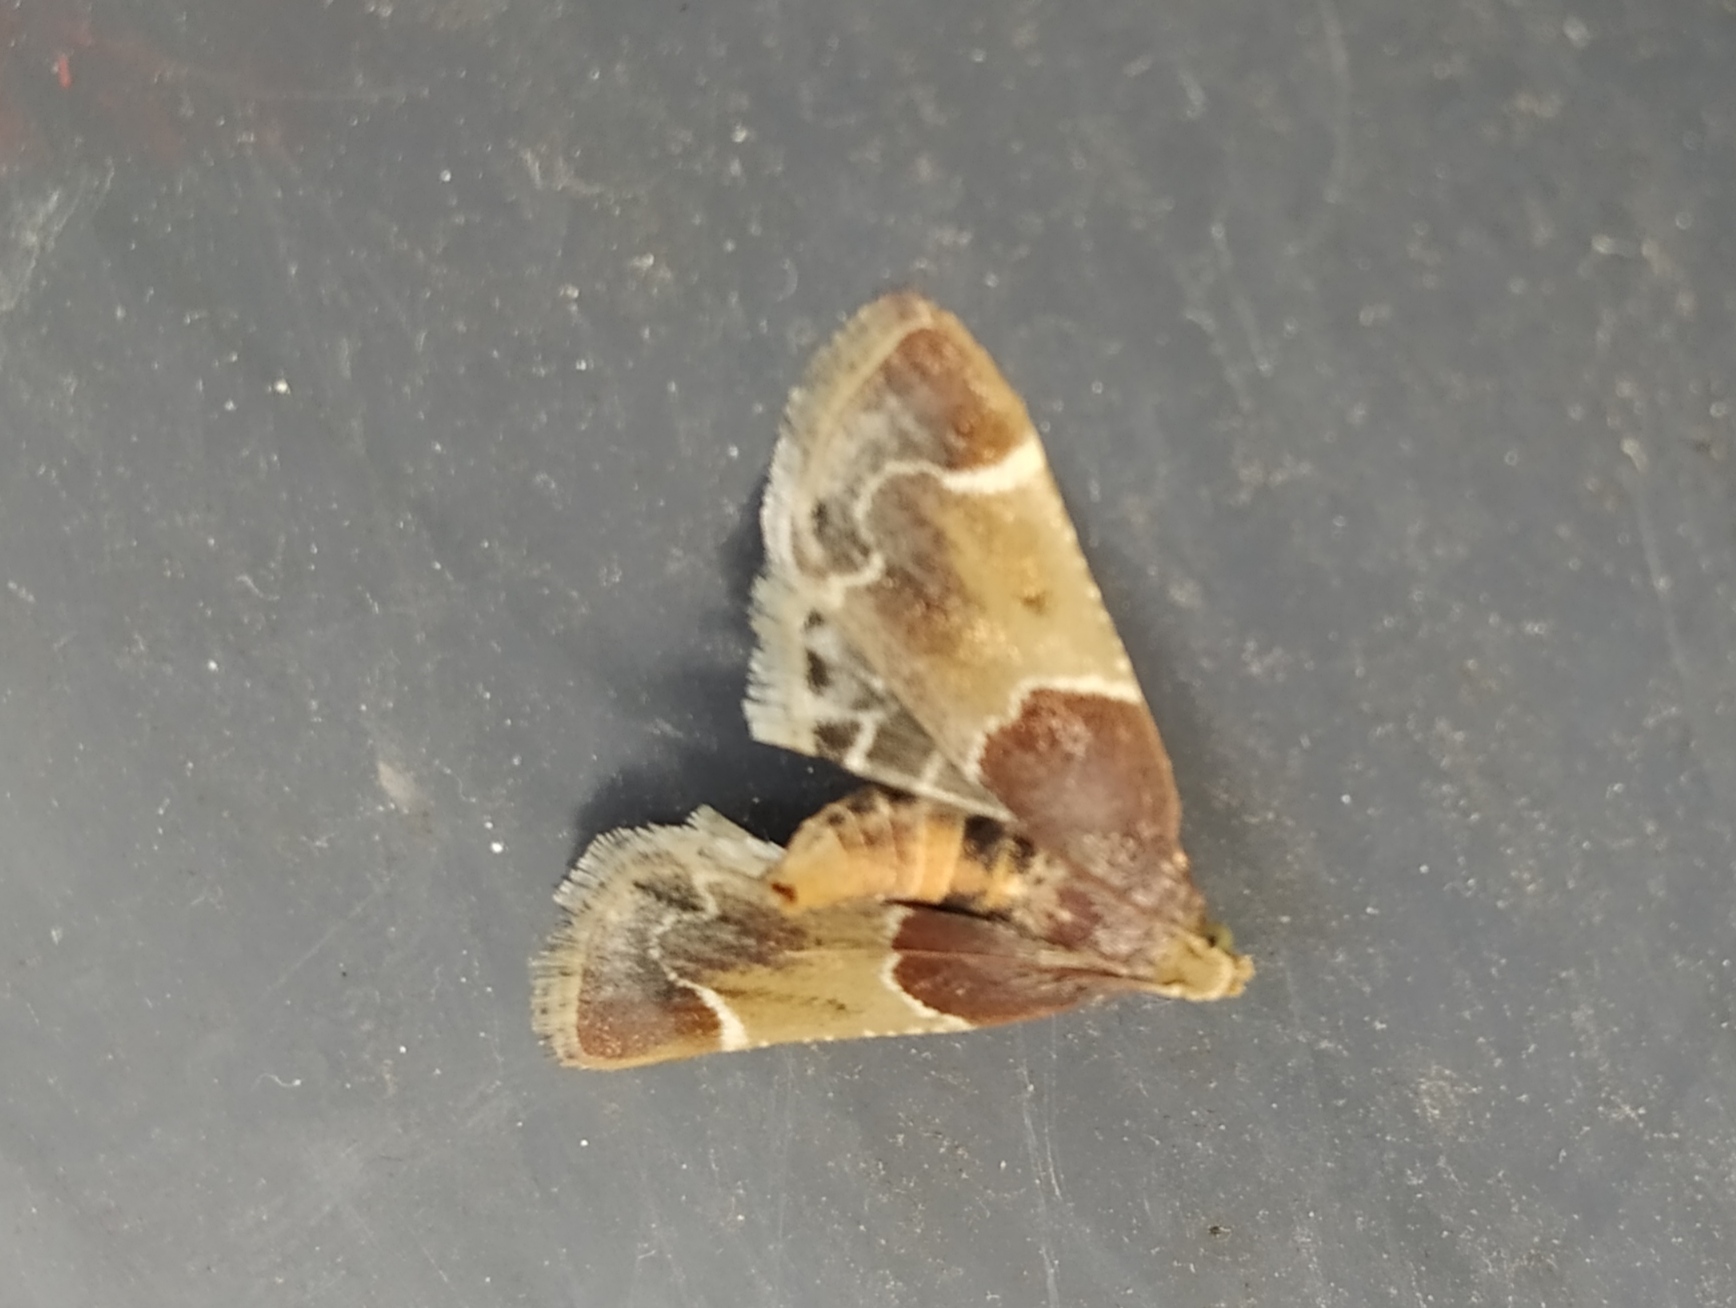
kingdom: Animalia
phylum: Arthropoda
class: Insecta
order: Lepidoptera
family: Pyralidae
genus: Pyralis
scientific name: Pyralis farinalis
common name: Meal moth
